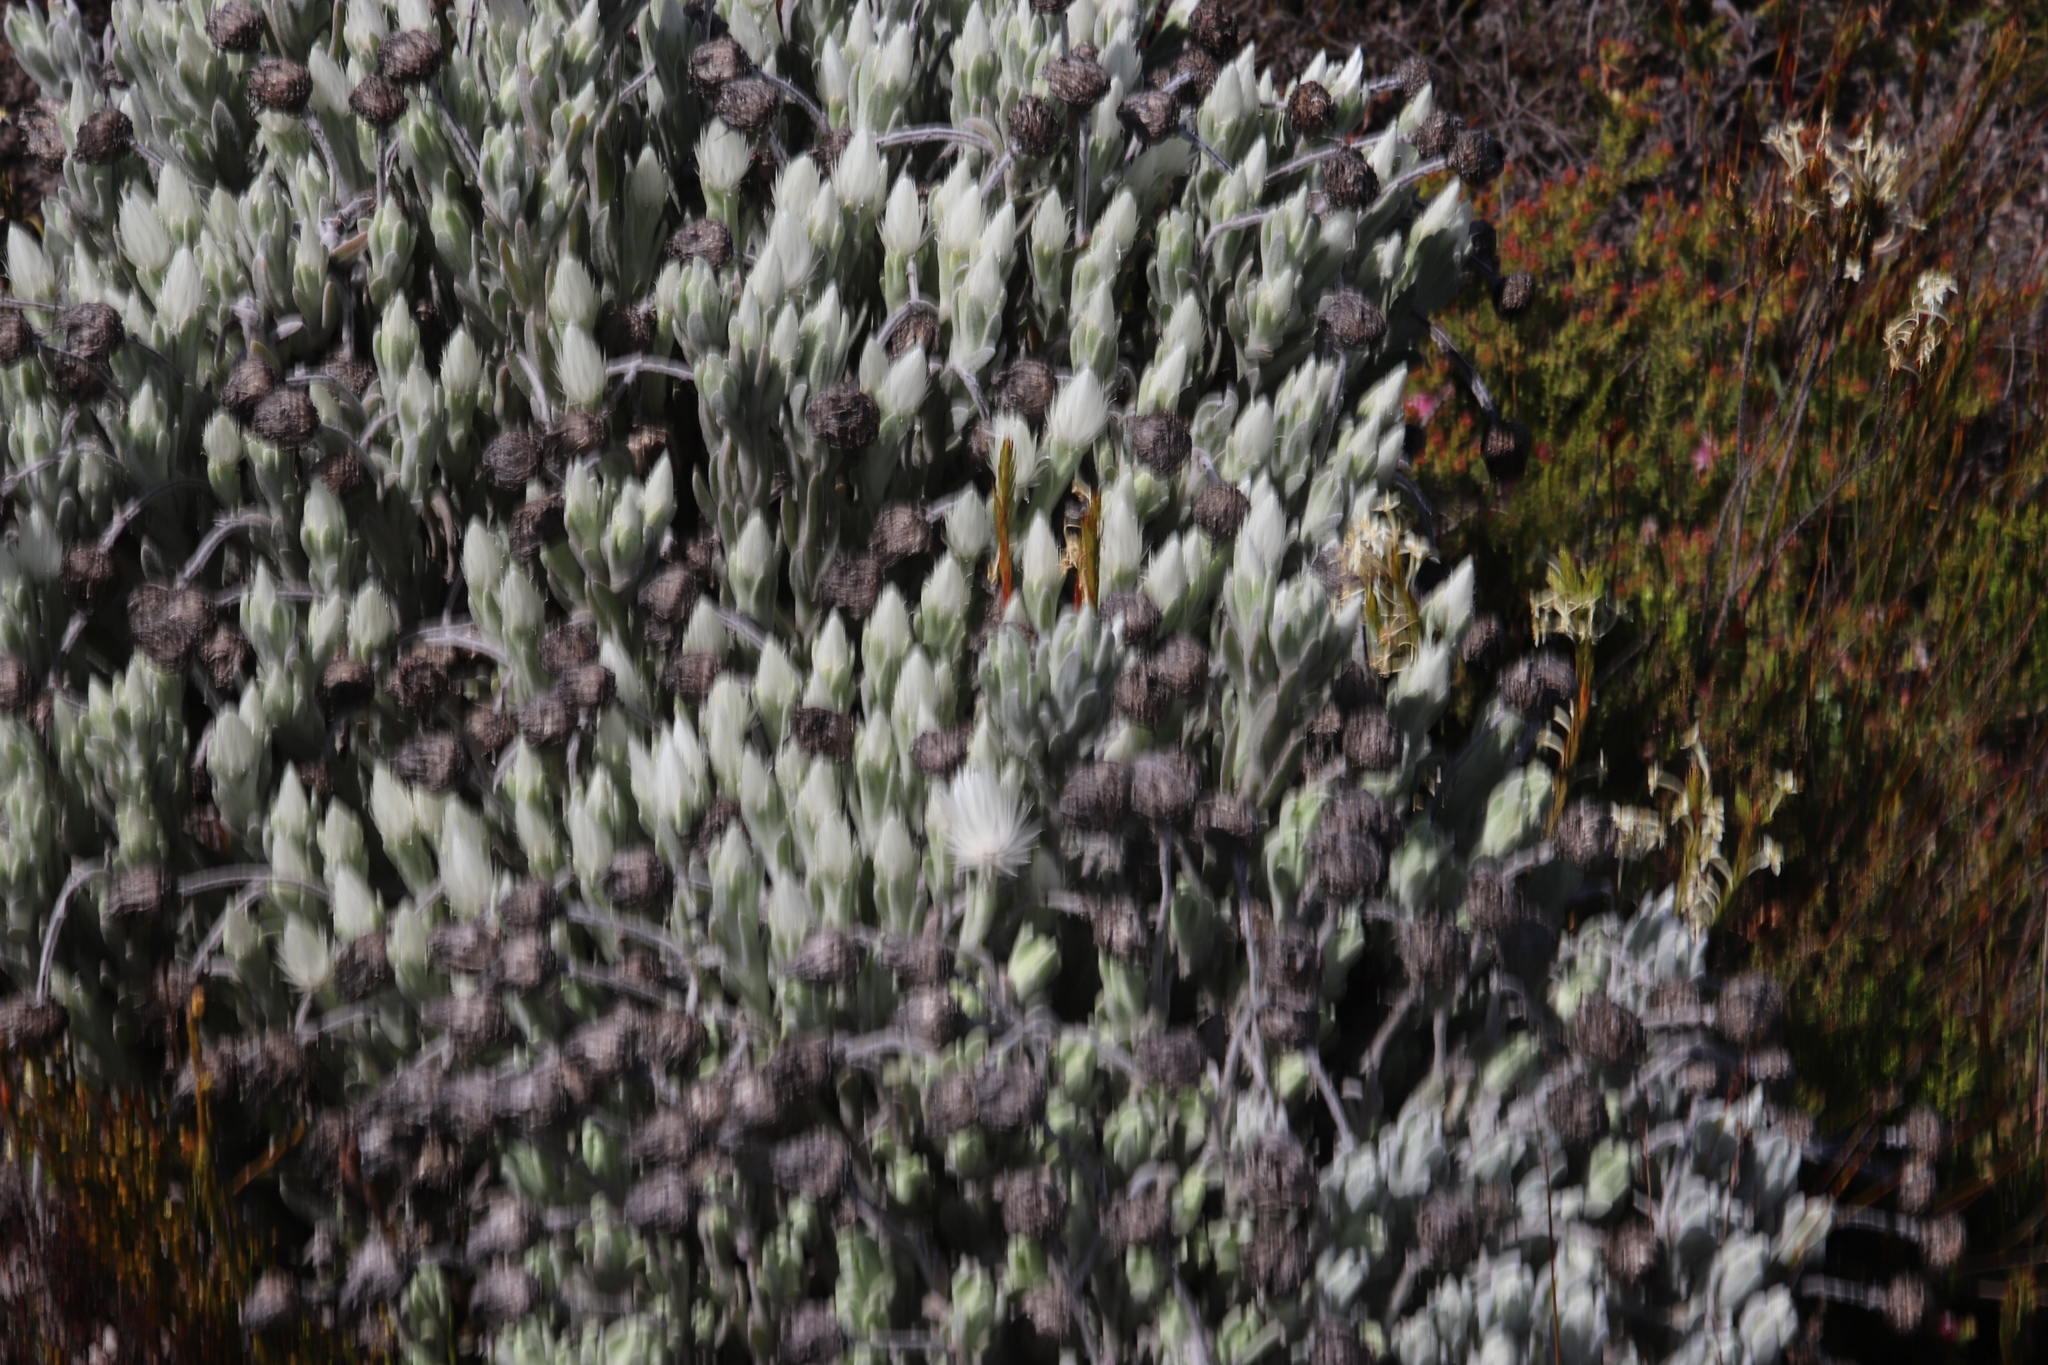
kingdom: Plantae
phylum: Tracheophyta
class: Magnoliopsida
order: Asterales
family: Asteraceae
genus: Syncarpha
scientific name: Syncarpha vestita
